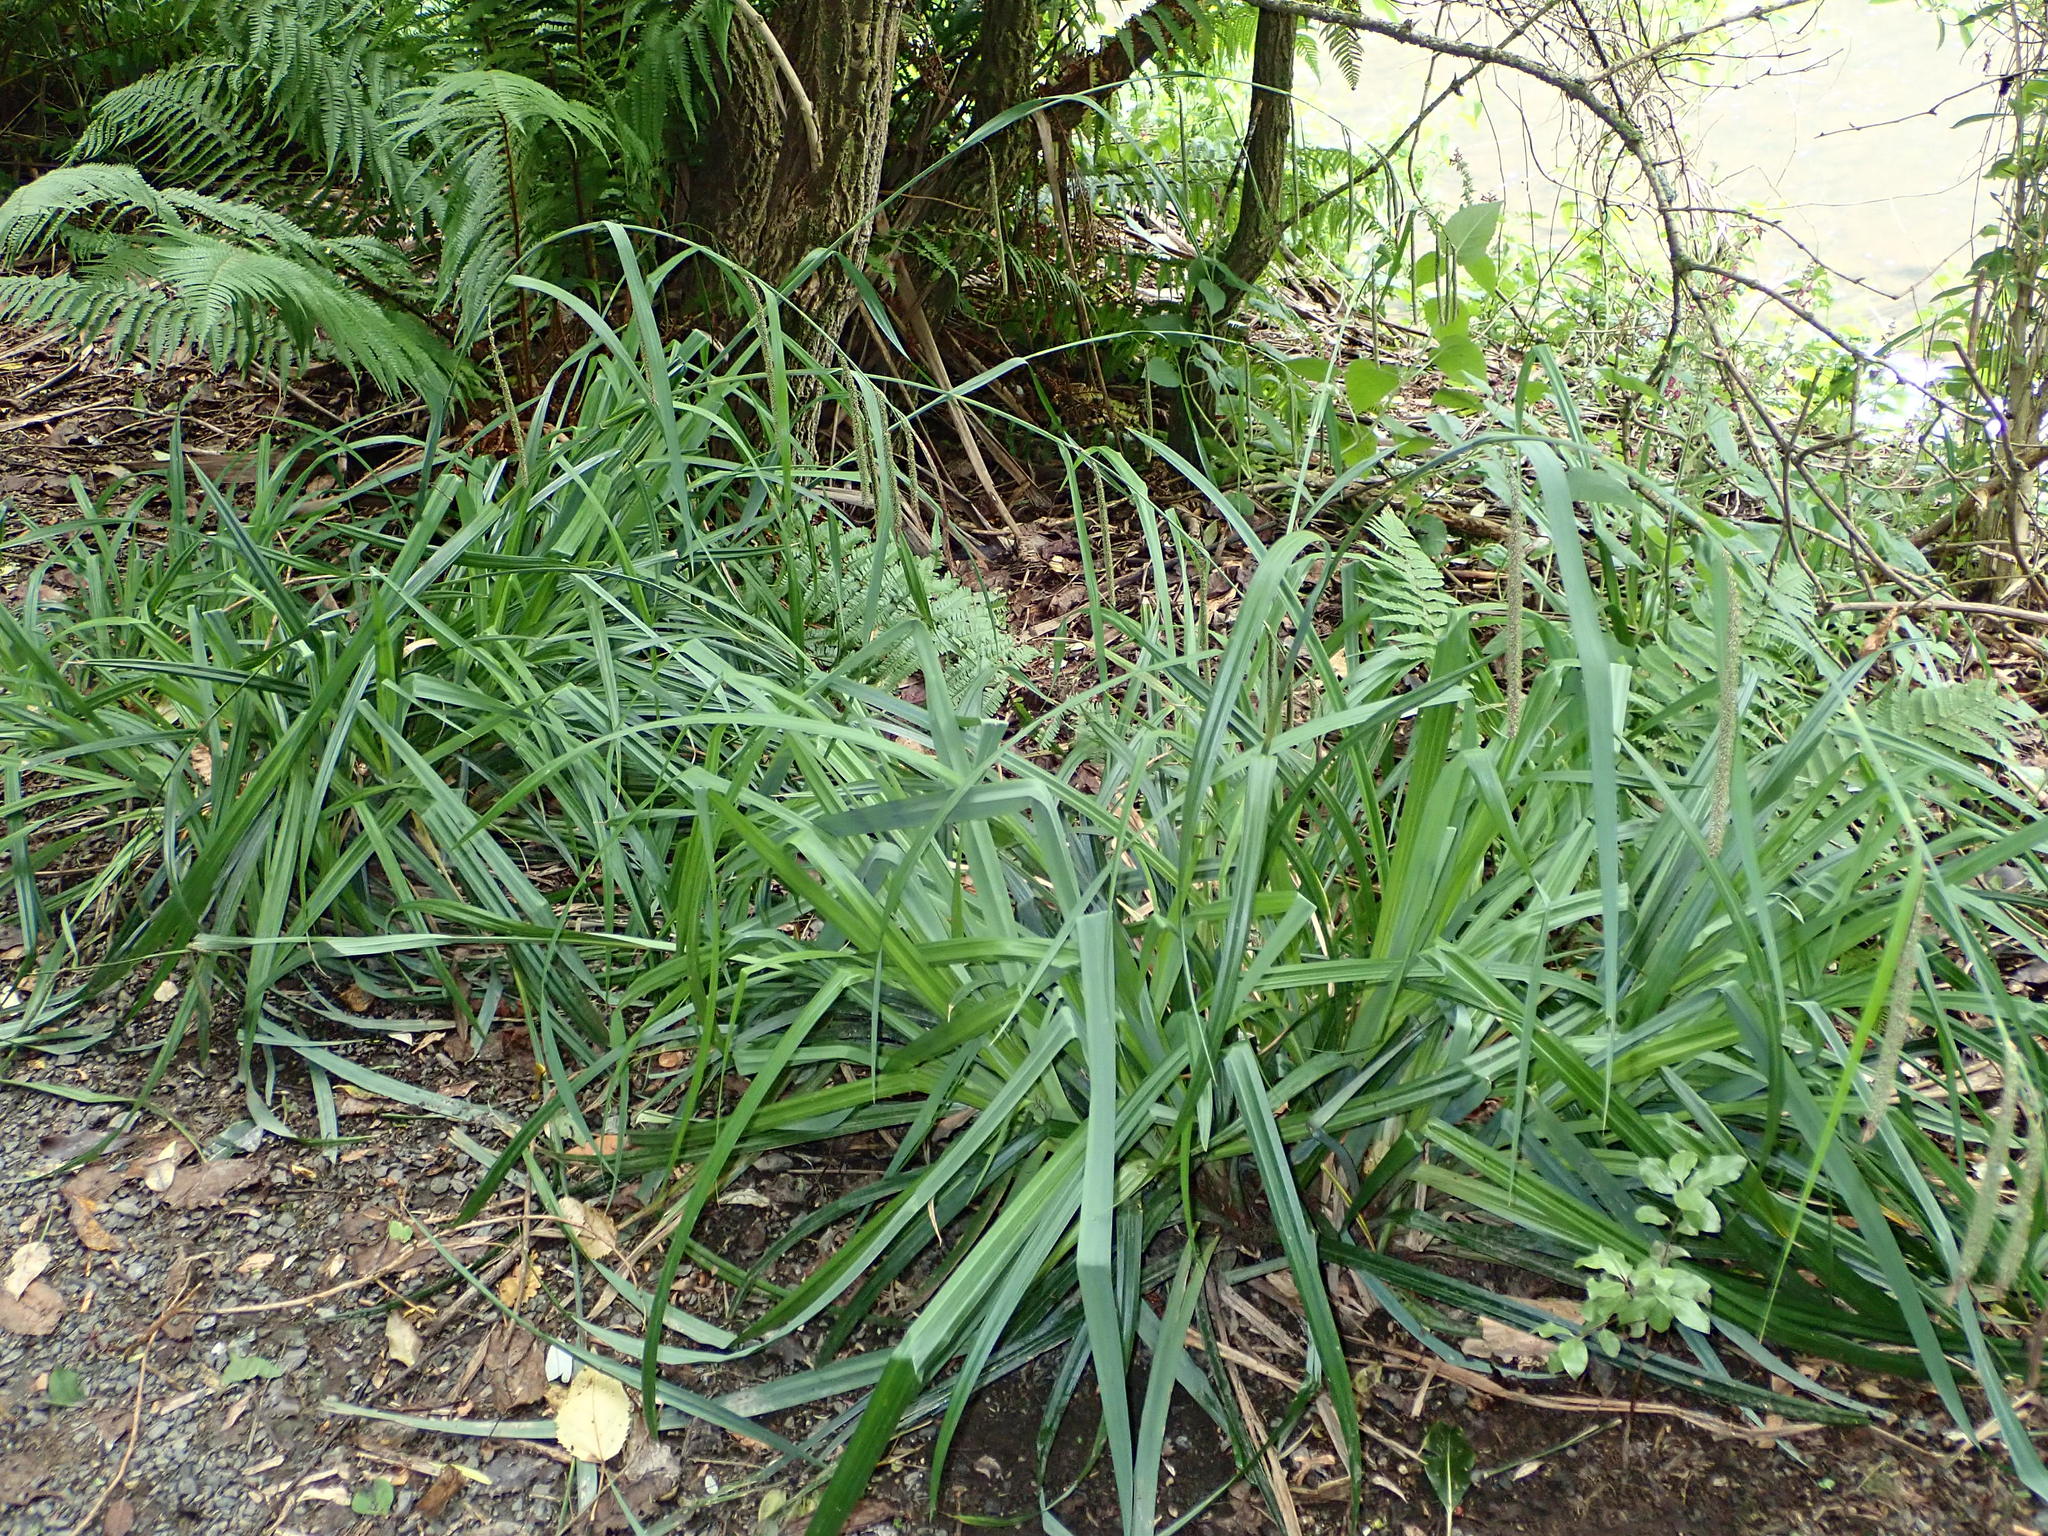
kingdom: Plantae
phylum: Tracheophyta
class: Liliopsida
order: Poales
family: Cyperaceae
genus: Carex
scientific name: Carex pendula
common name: Pendulous sedge
